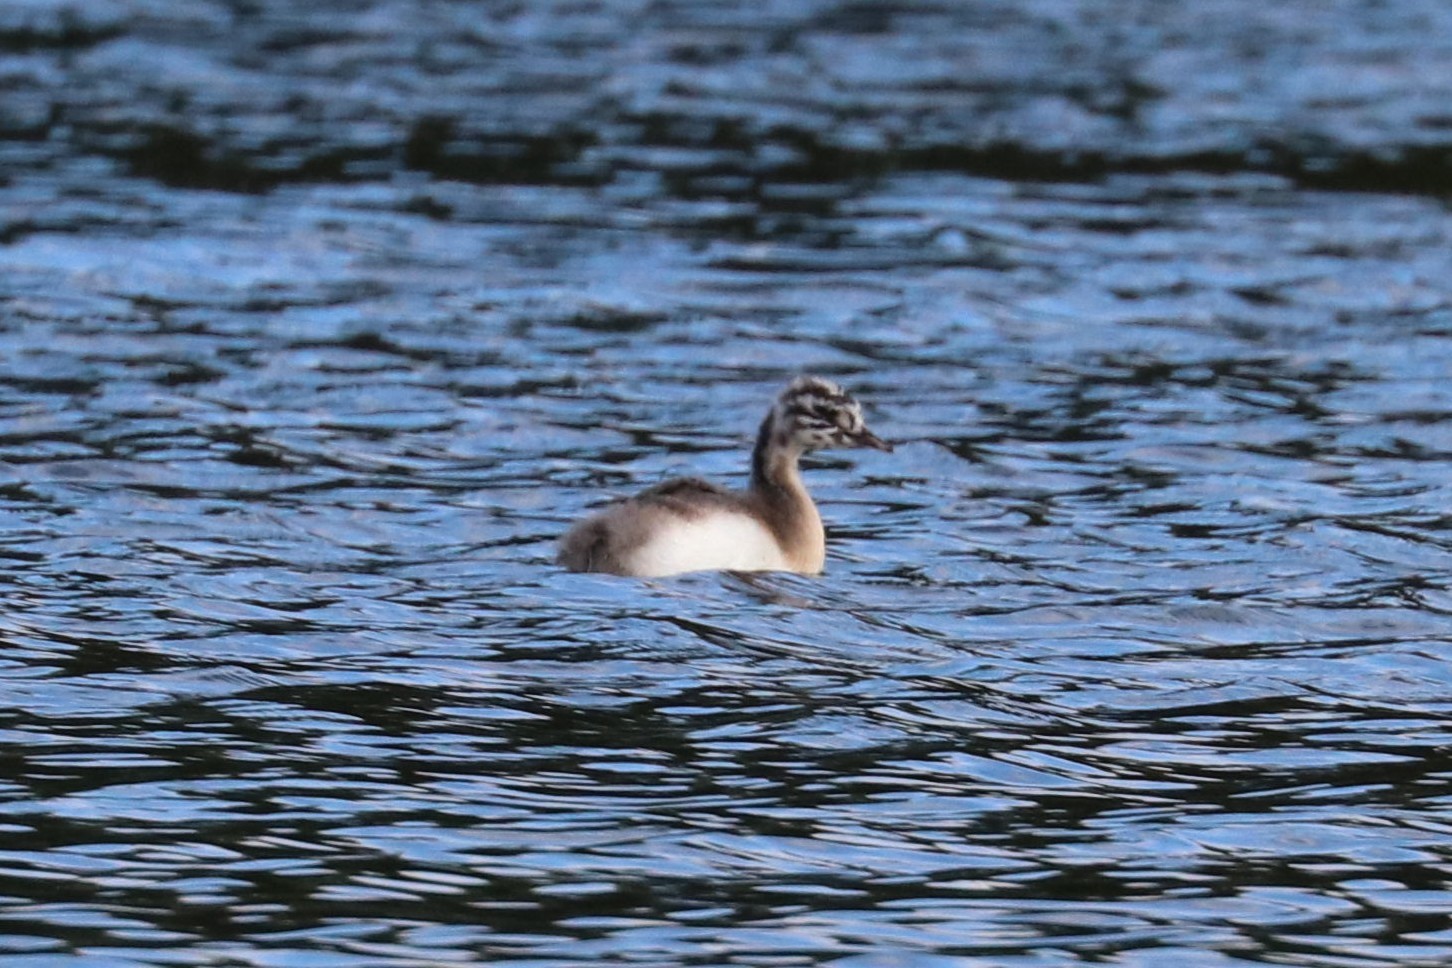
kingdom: Animalia
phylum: Chordata
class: Aves
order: Podicipediformes
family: Podicipedidae
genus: Podiceps
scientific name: Podiceps cristatus
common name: Great crested grebe
